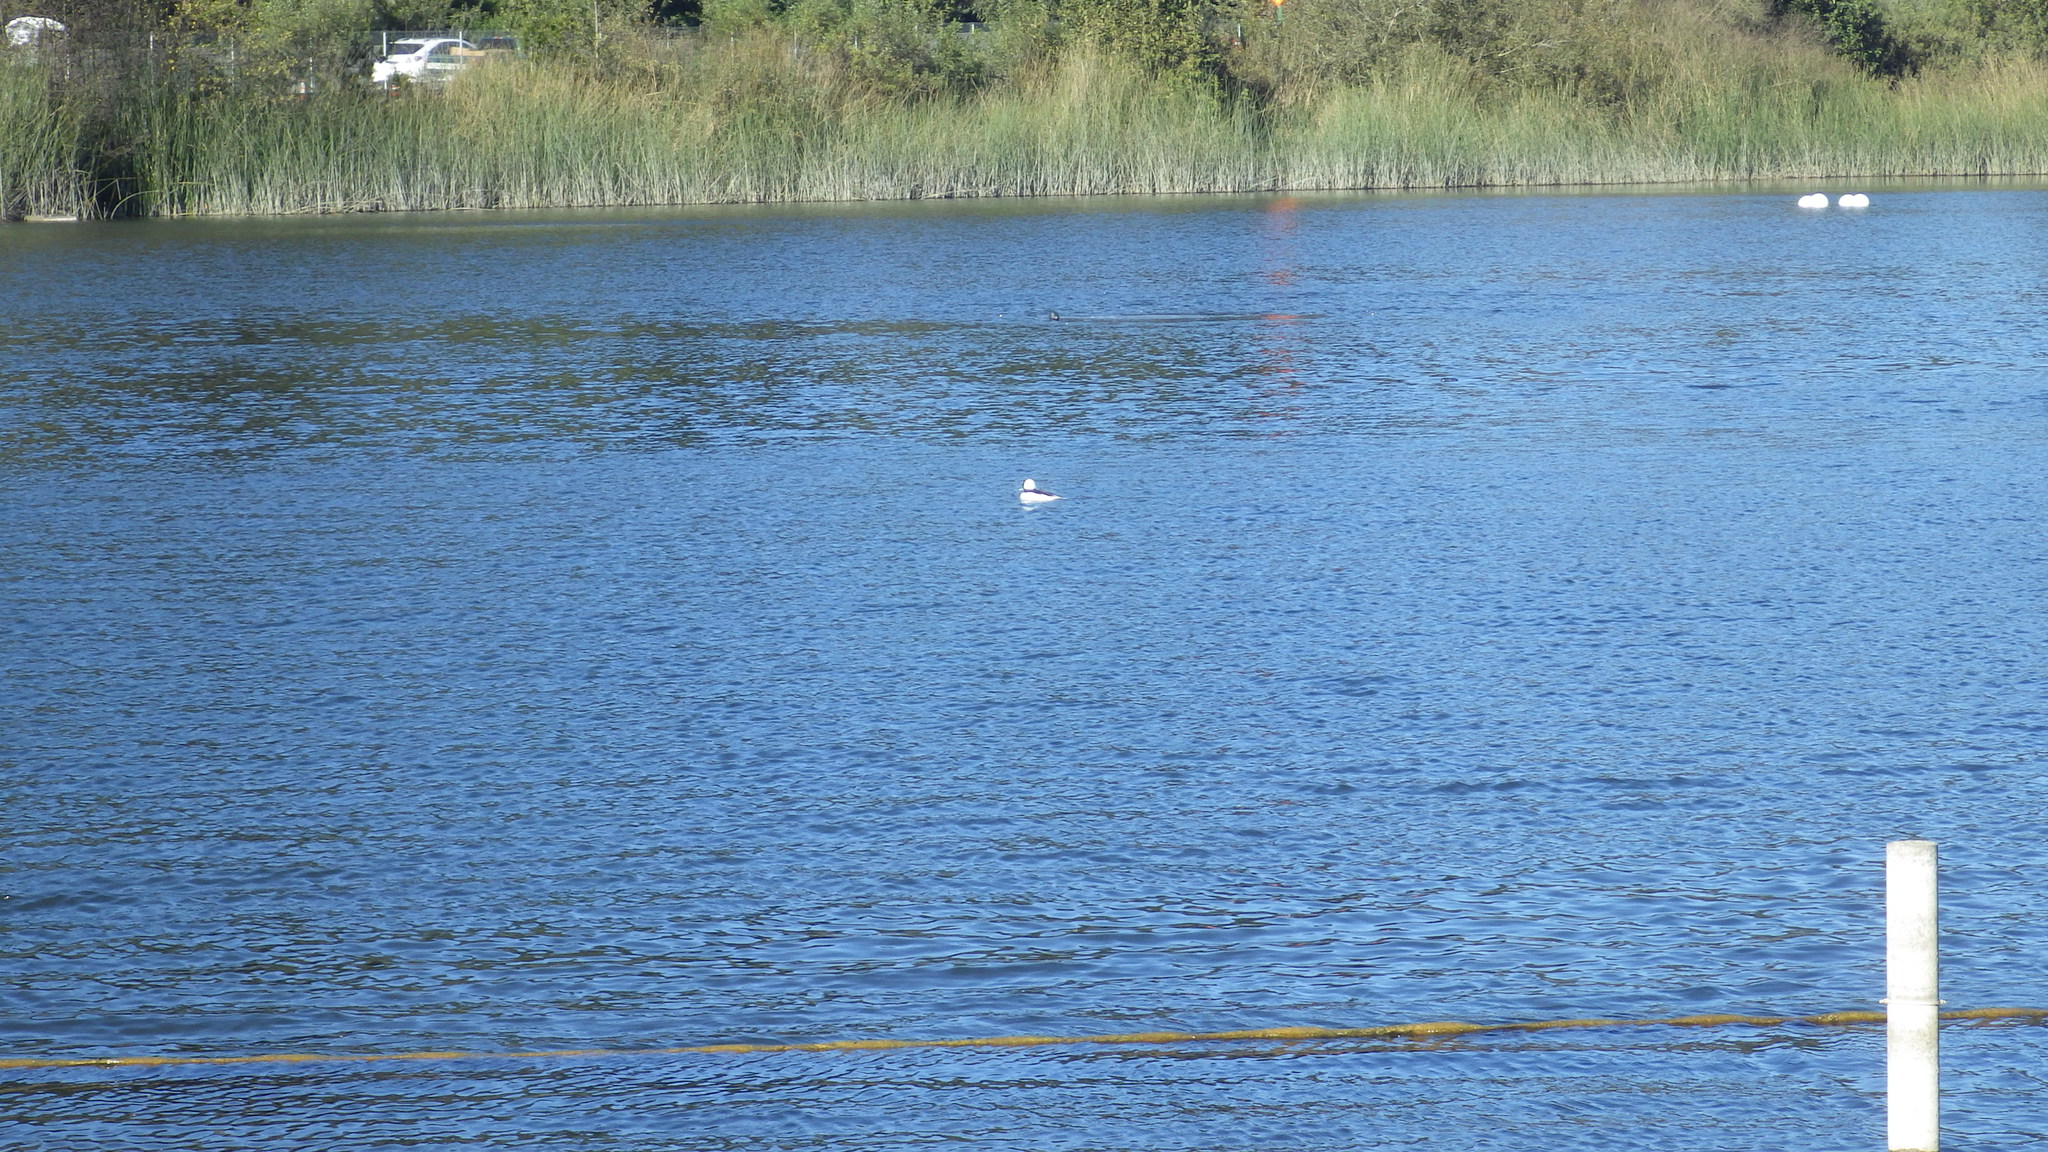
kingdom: Animalia
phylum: Chordata
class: Aves
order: Anseriformes
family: Anatidae
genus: Bucephala
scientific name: Bucephala albeola
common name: Bufflehead
